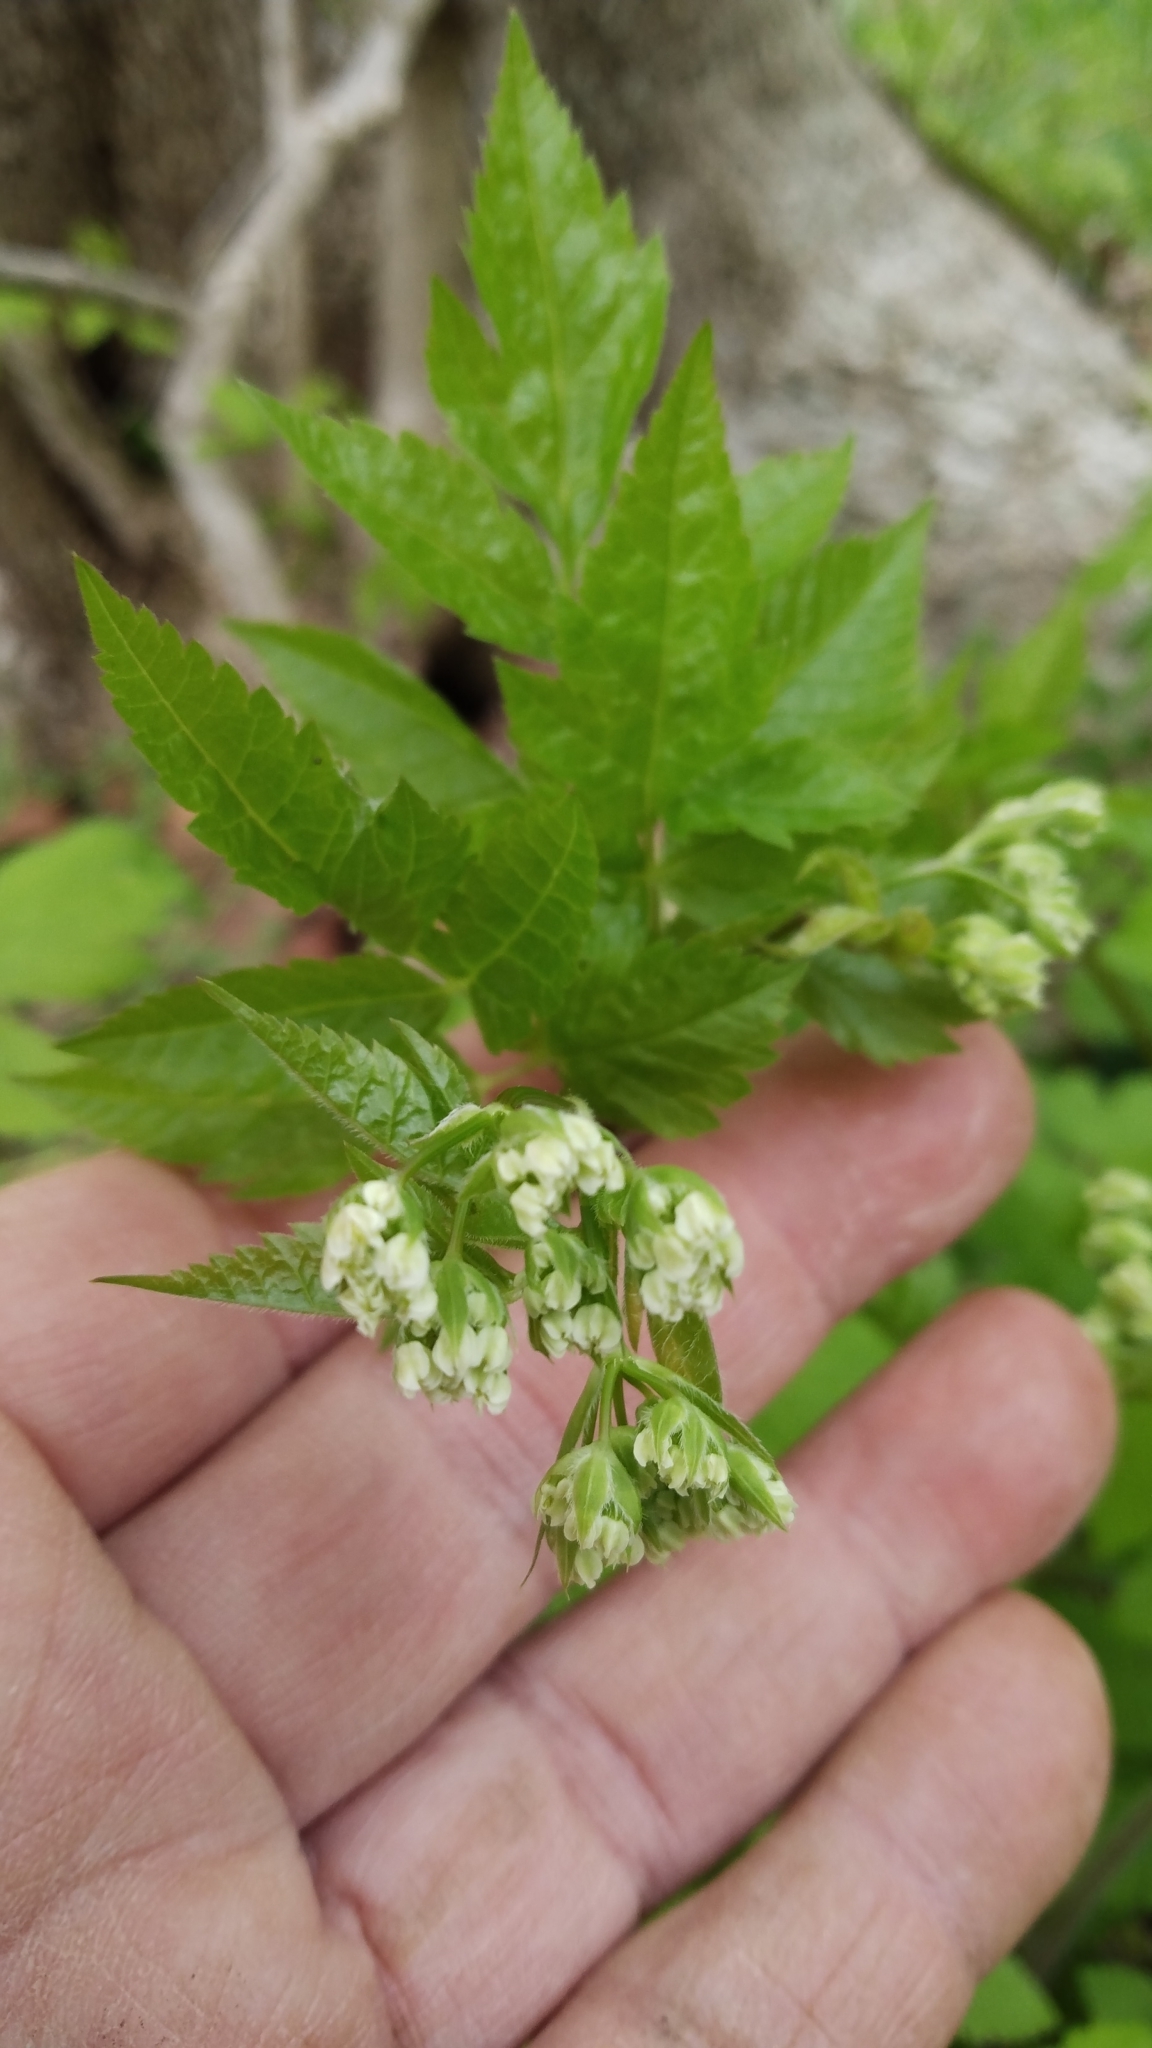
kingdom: Plantae
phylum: Tracheophyta
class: Magnoliopsida
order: Apiales
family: Apiaceae
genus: Osmorhiza
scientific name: Osmorhiza longistylis
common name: Smooth sweet cicely
